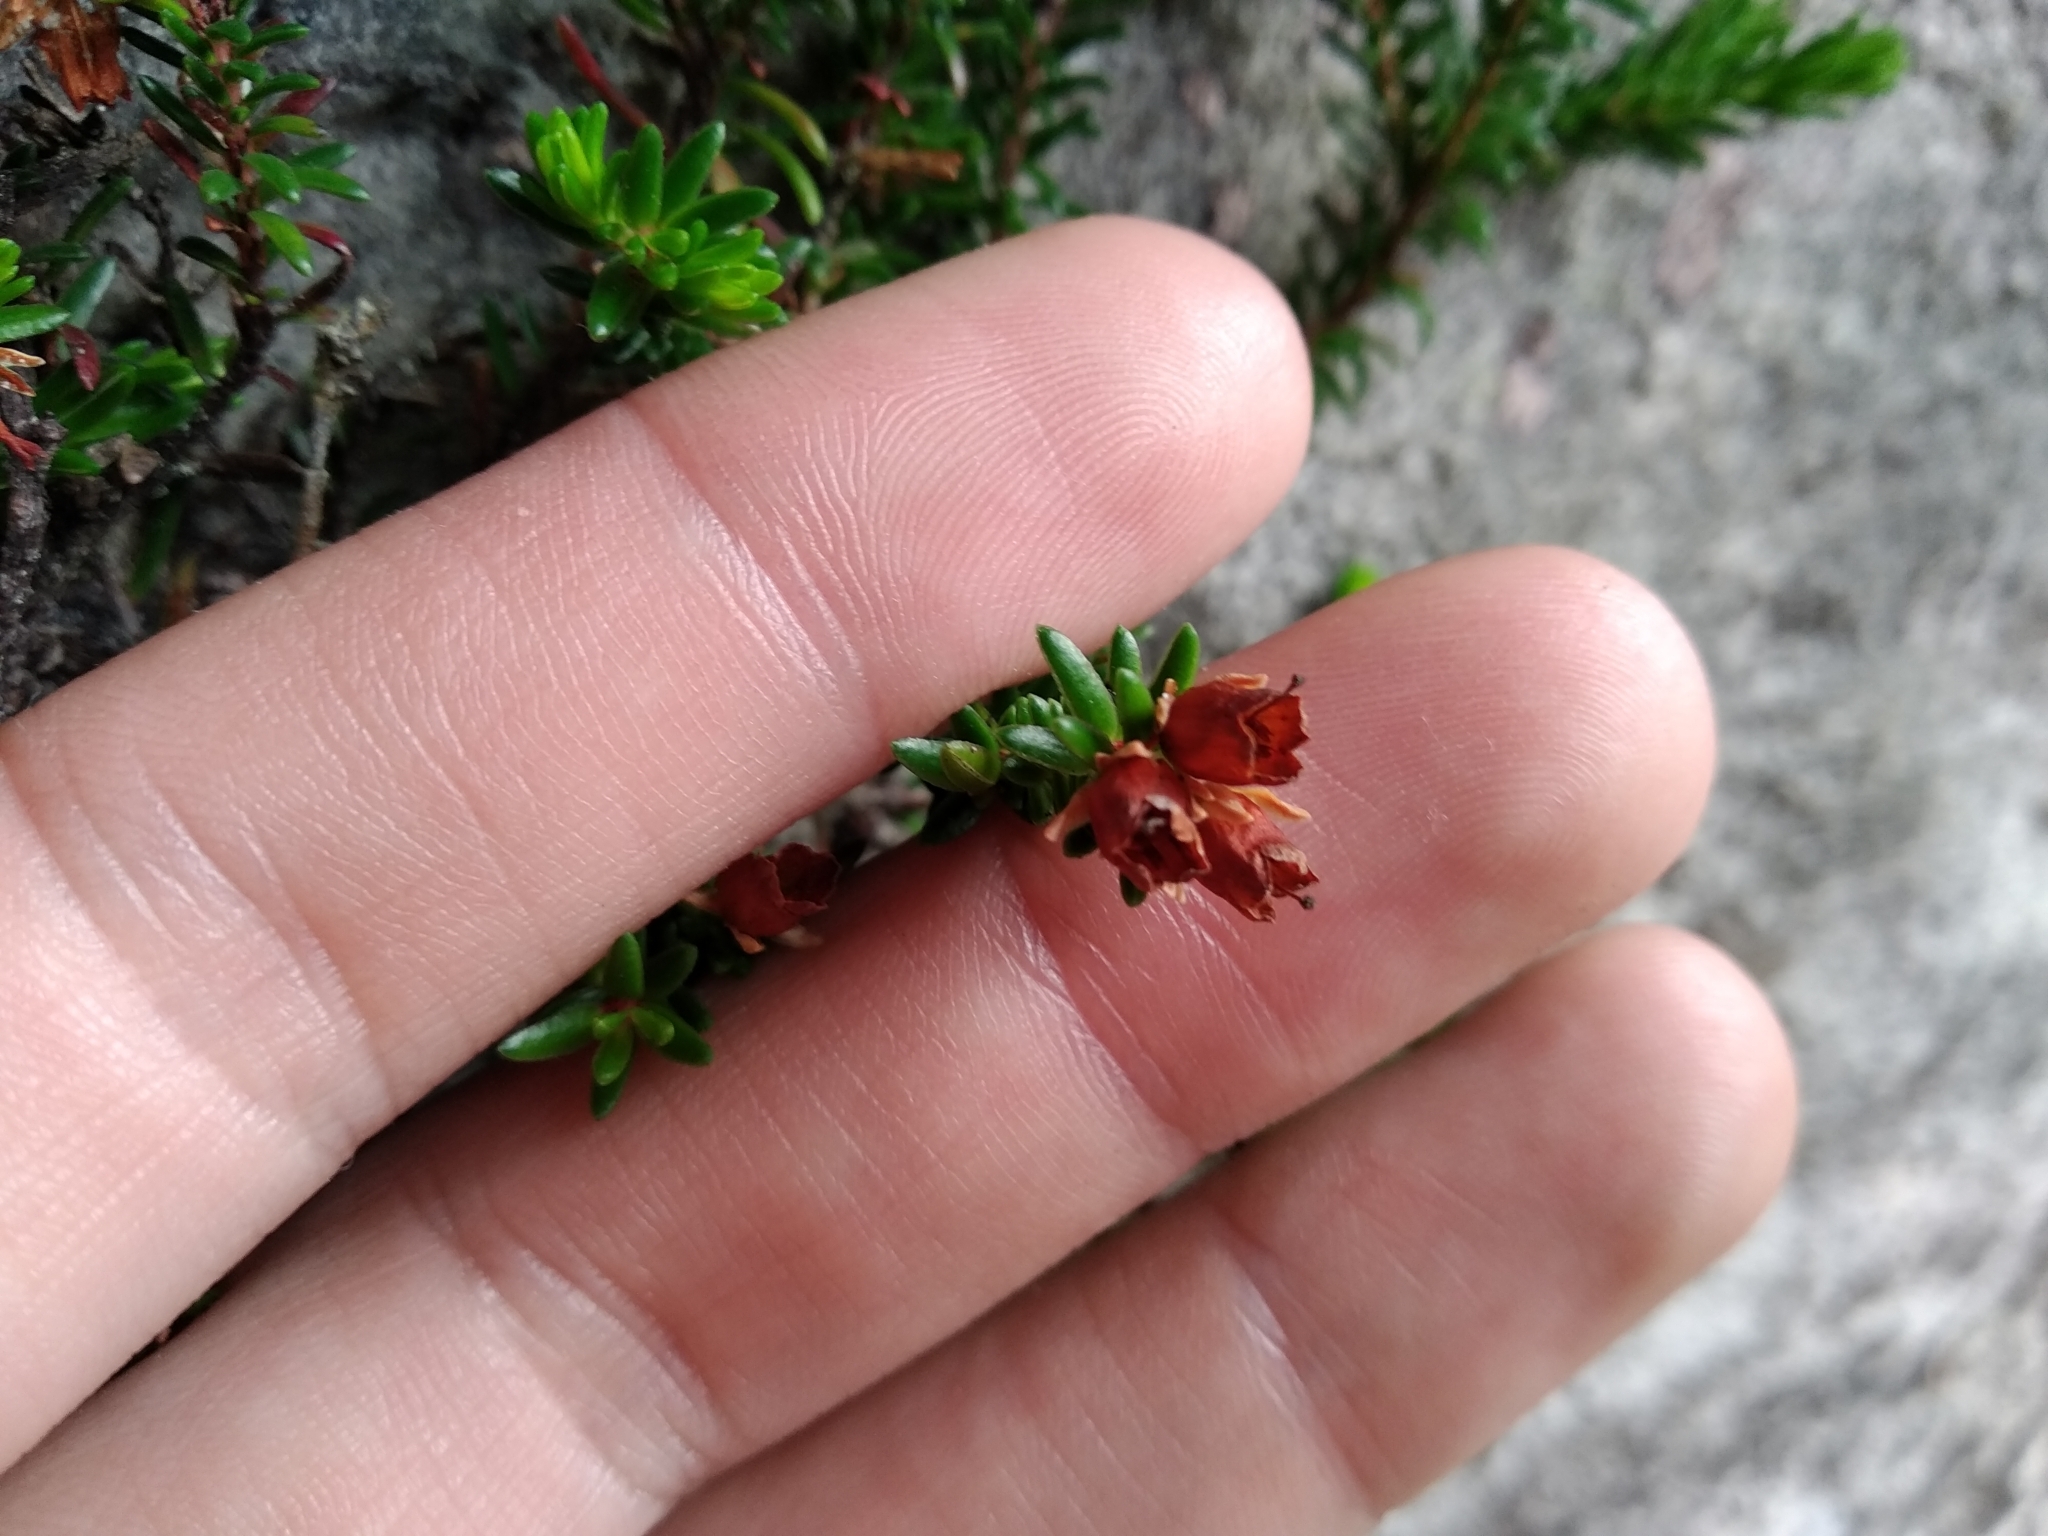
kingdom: Plantae
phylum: Tracheophyta
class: Magnoliopsida
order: Ericales
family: Ericaceae
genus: Erica
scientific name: Erica depressa
